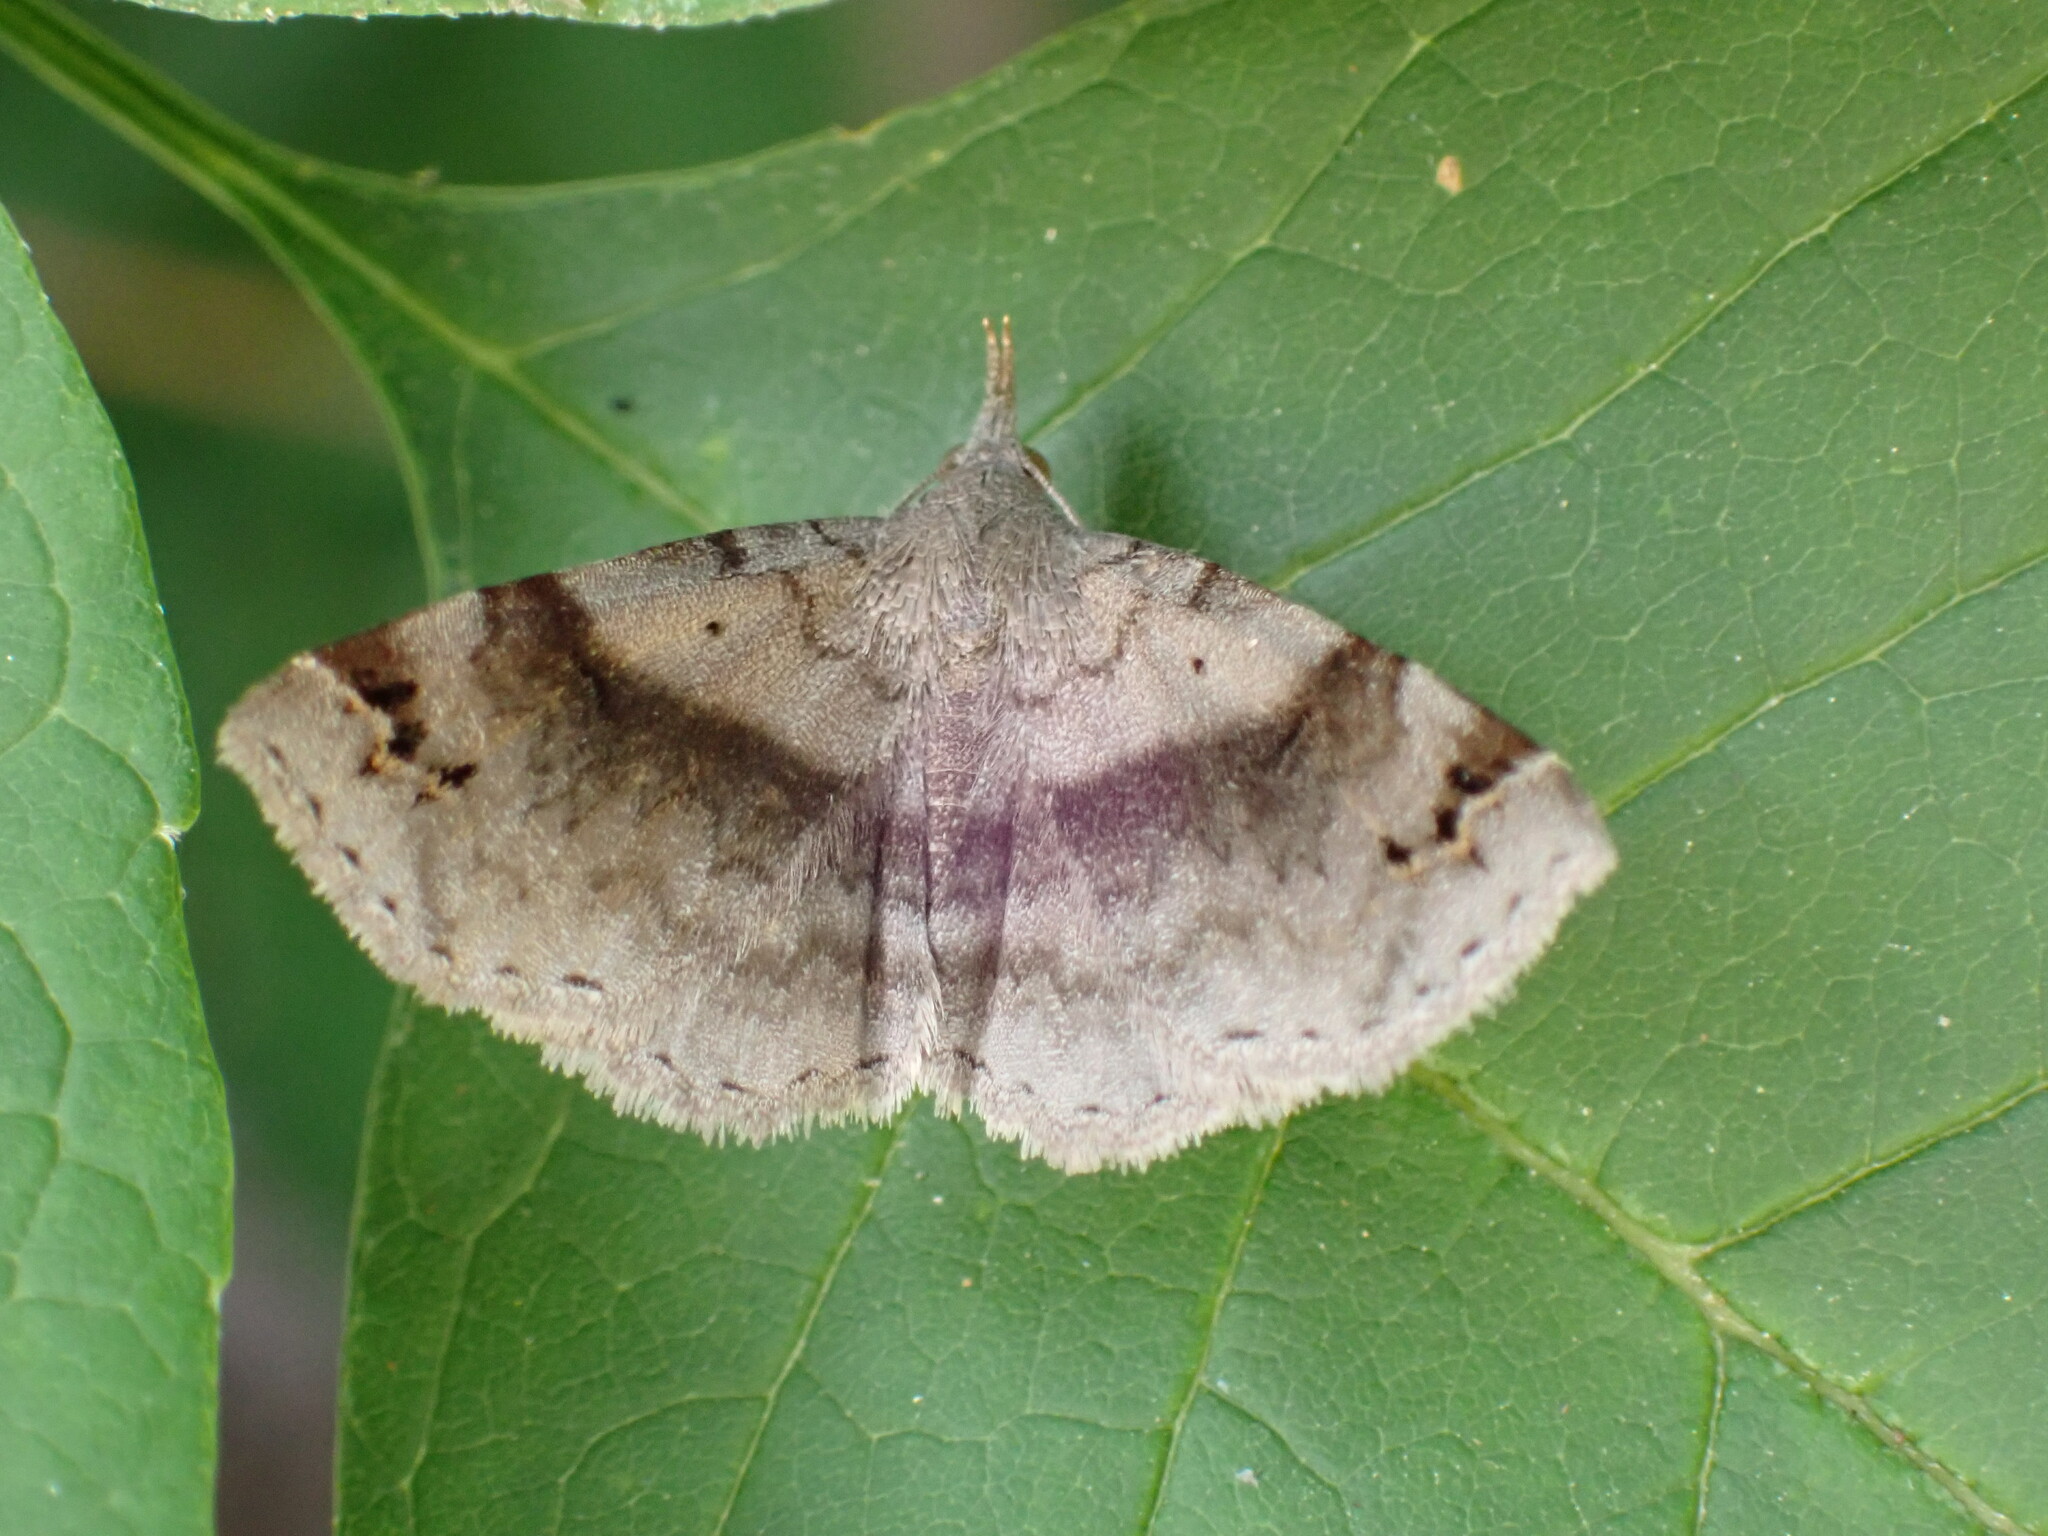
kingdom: Animalia
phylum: Arthropoda
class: Insecta
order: Lepidoptera
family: Erebidae
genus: Spargaloma
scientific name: Spargaloma sexpunctata
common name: Six-spotted gray
